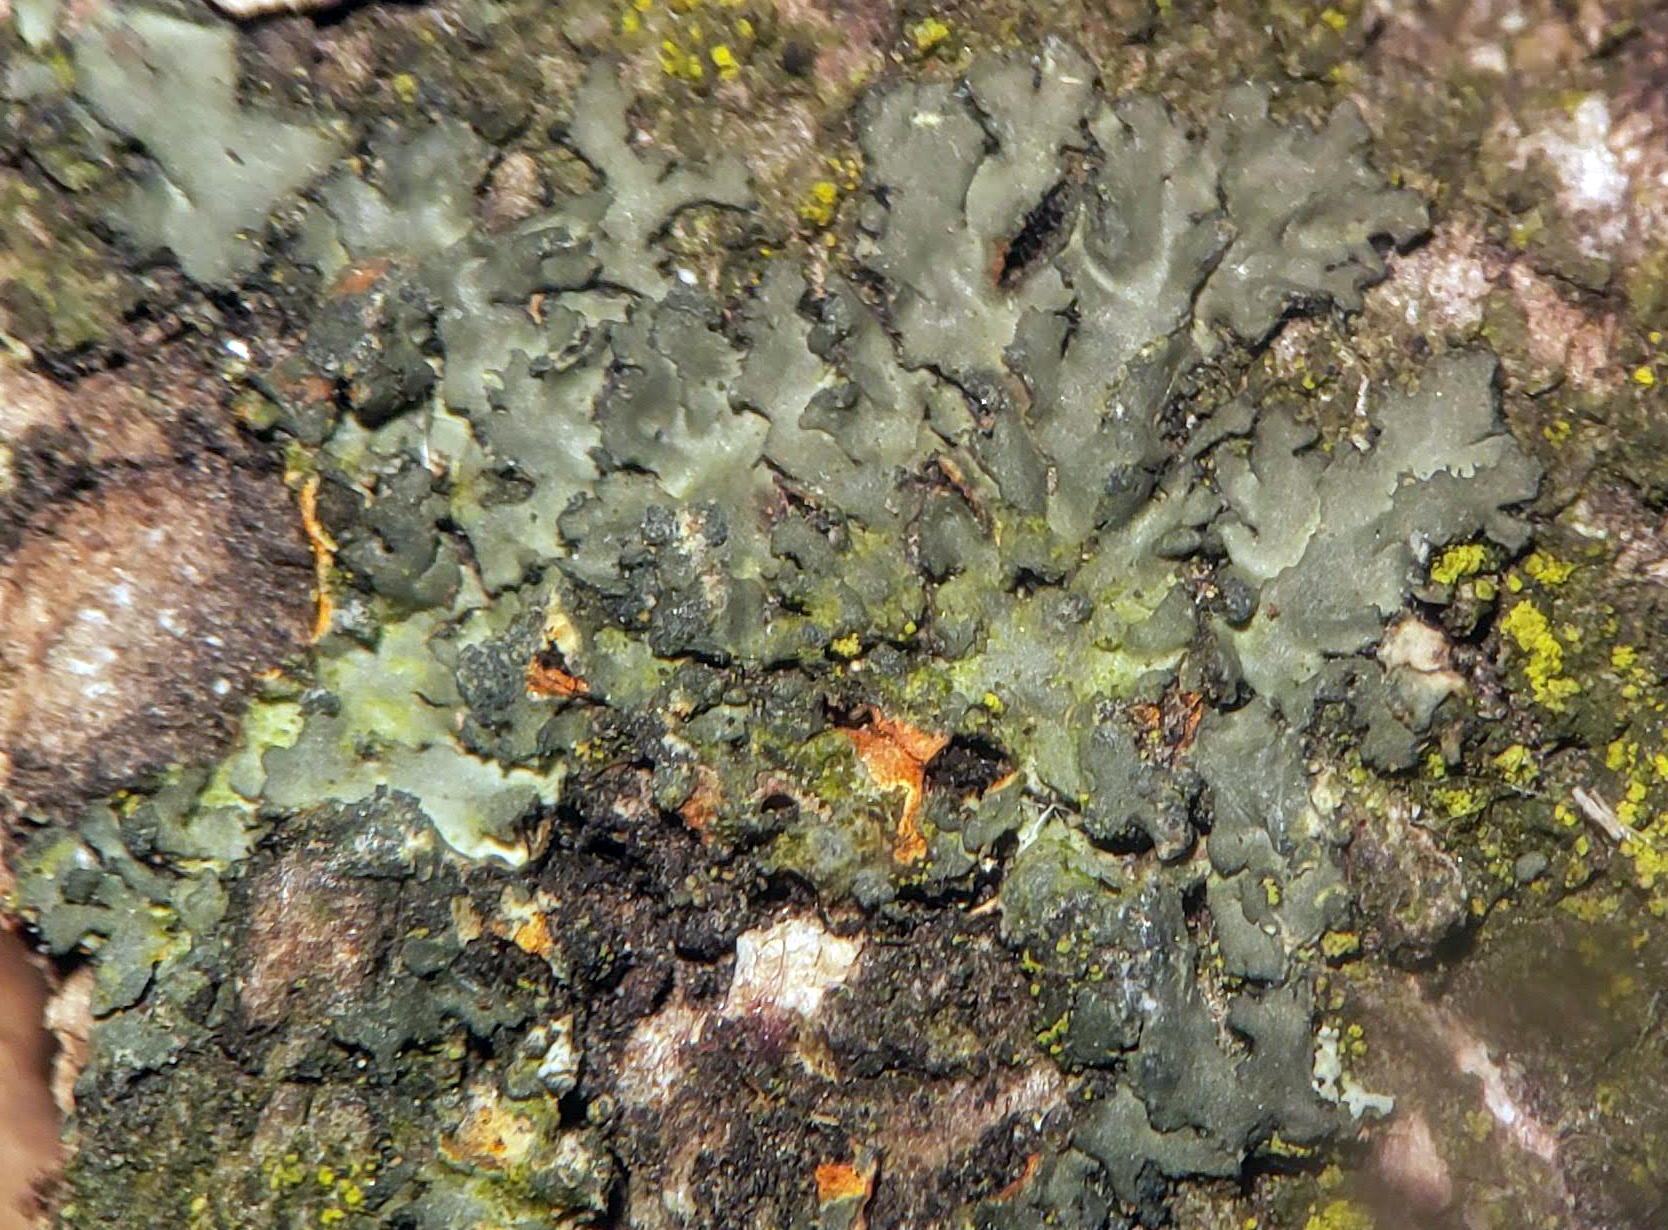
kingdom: Fungi
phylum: Ascomycota
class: Lecanoromycetes
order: Caliciales
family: Physciaceae
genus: Phaeophyscia
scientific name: Phaeophyscia rubropulchra
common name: Orange-cored shadow lichen
